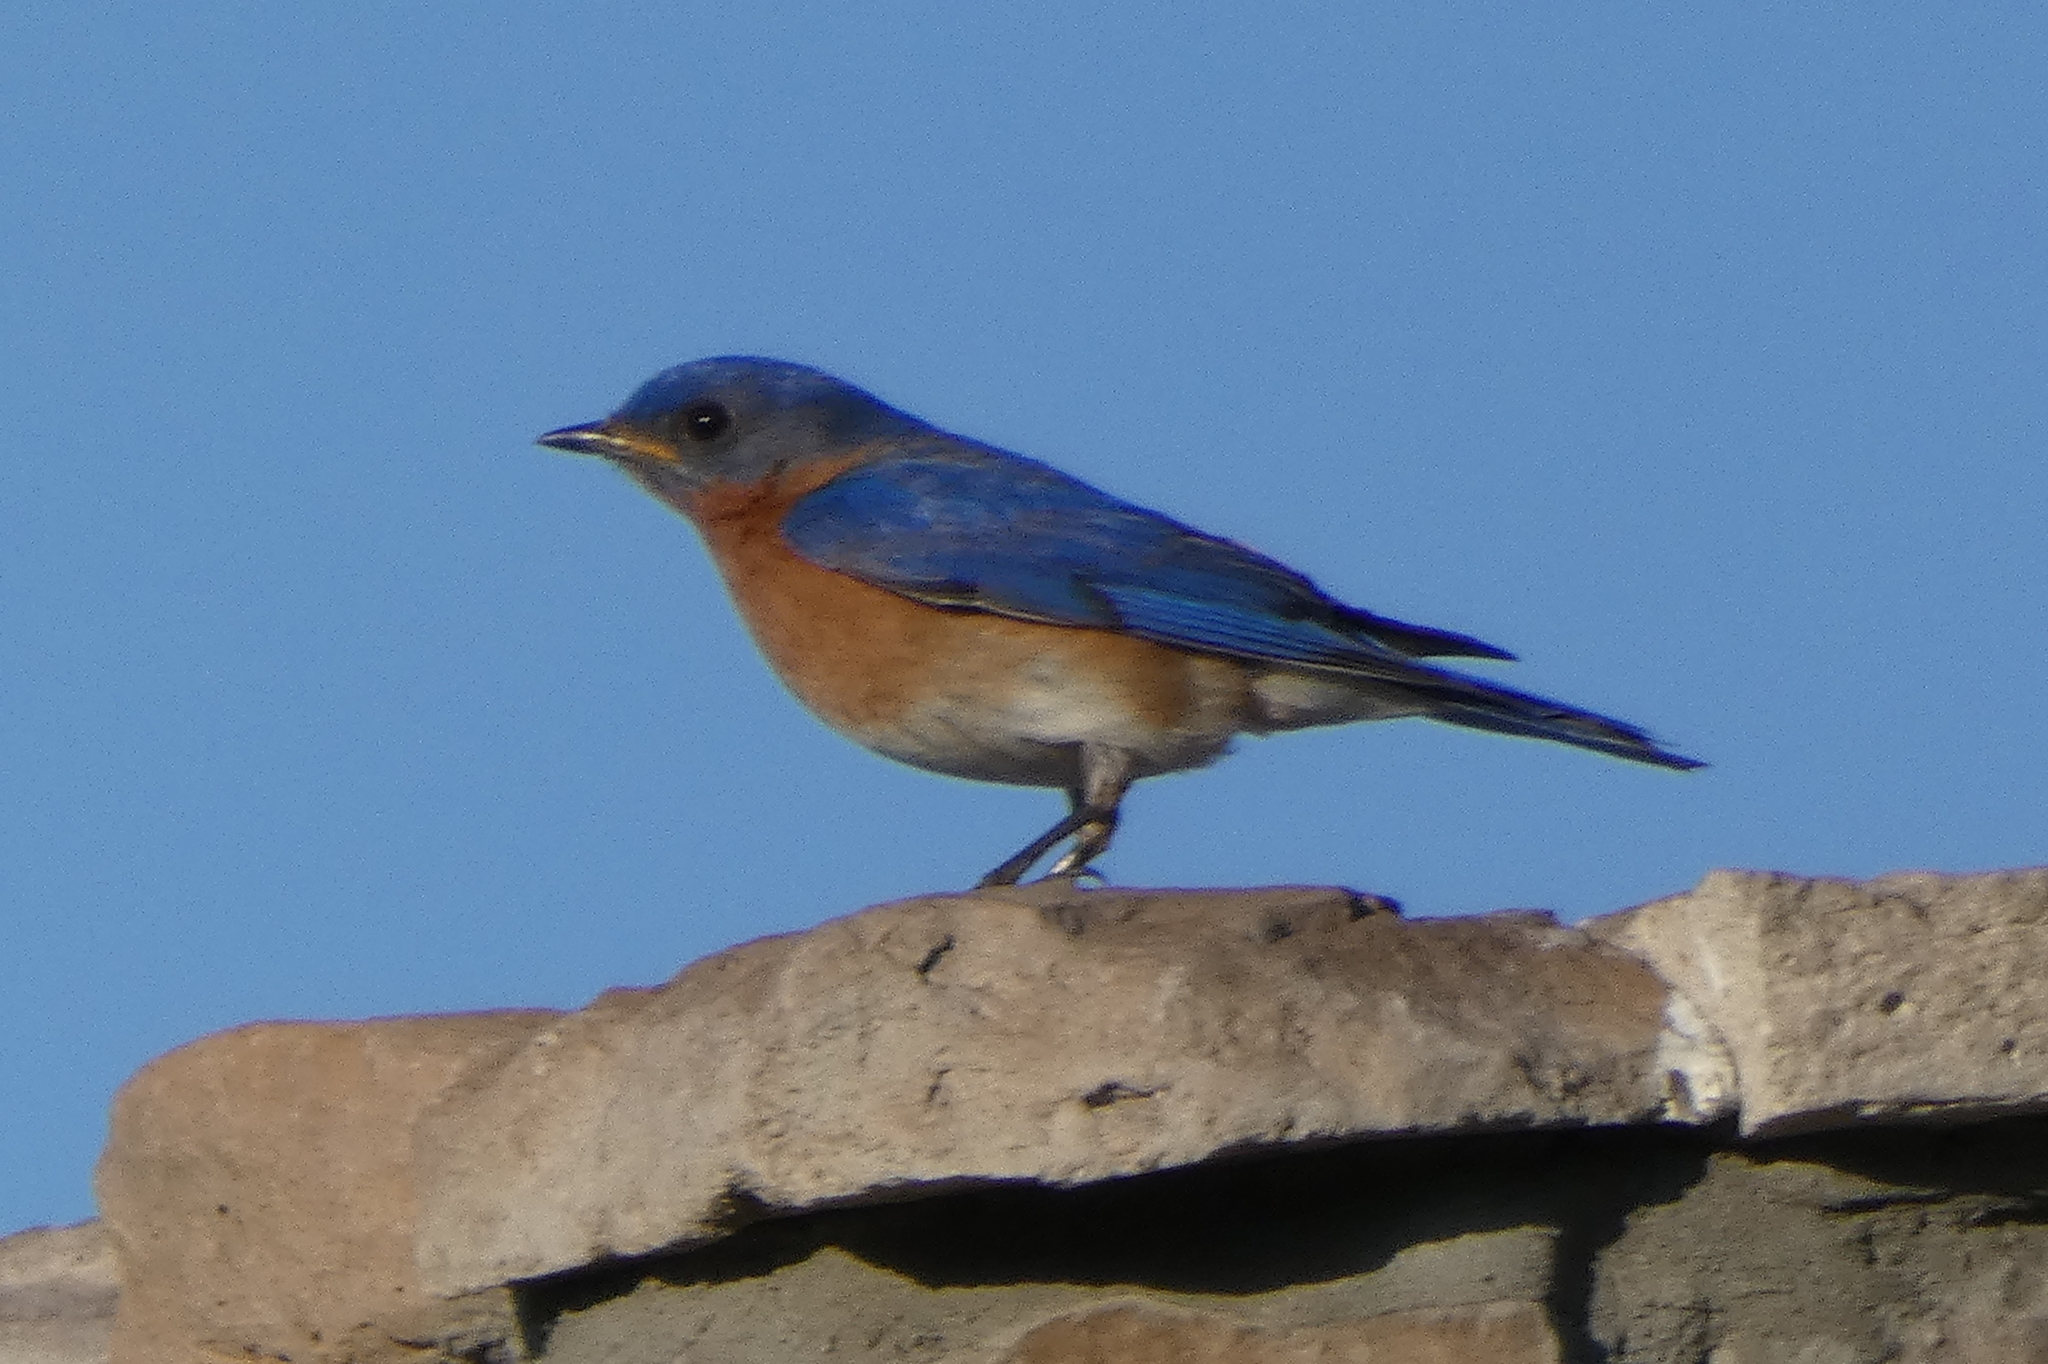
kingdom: Animalia
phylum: Chordata
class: Aves
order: Passeriformes
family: Turdidae
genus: Sialia
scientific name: Sialia sialis
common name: Eastern bluebird
